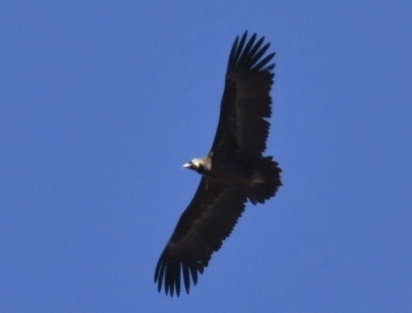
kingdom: Animalia
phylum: Chordata
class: Aves
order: Accipitriformes
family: Accipitridae
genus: Aegypius
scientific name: Aegypius monachus
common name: Cinereous vulture
